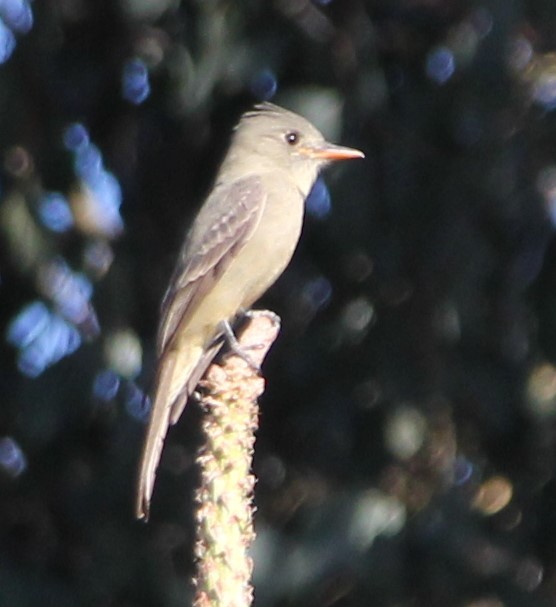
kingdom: Animalia
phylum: Chordata
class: Aves
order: Passeriformes
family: Tyrannidae
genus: Contopus
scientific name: Contopus pertinax
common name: Greater pewee
